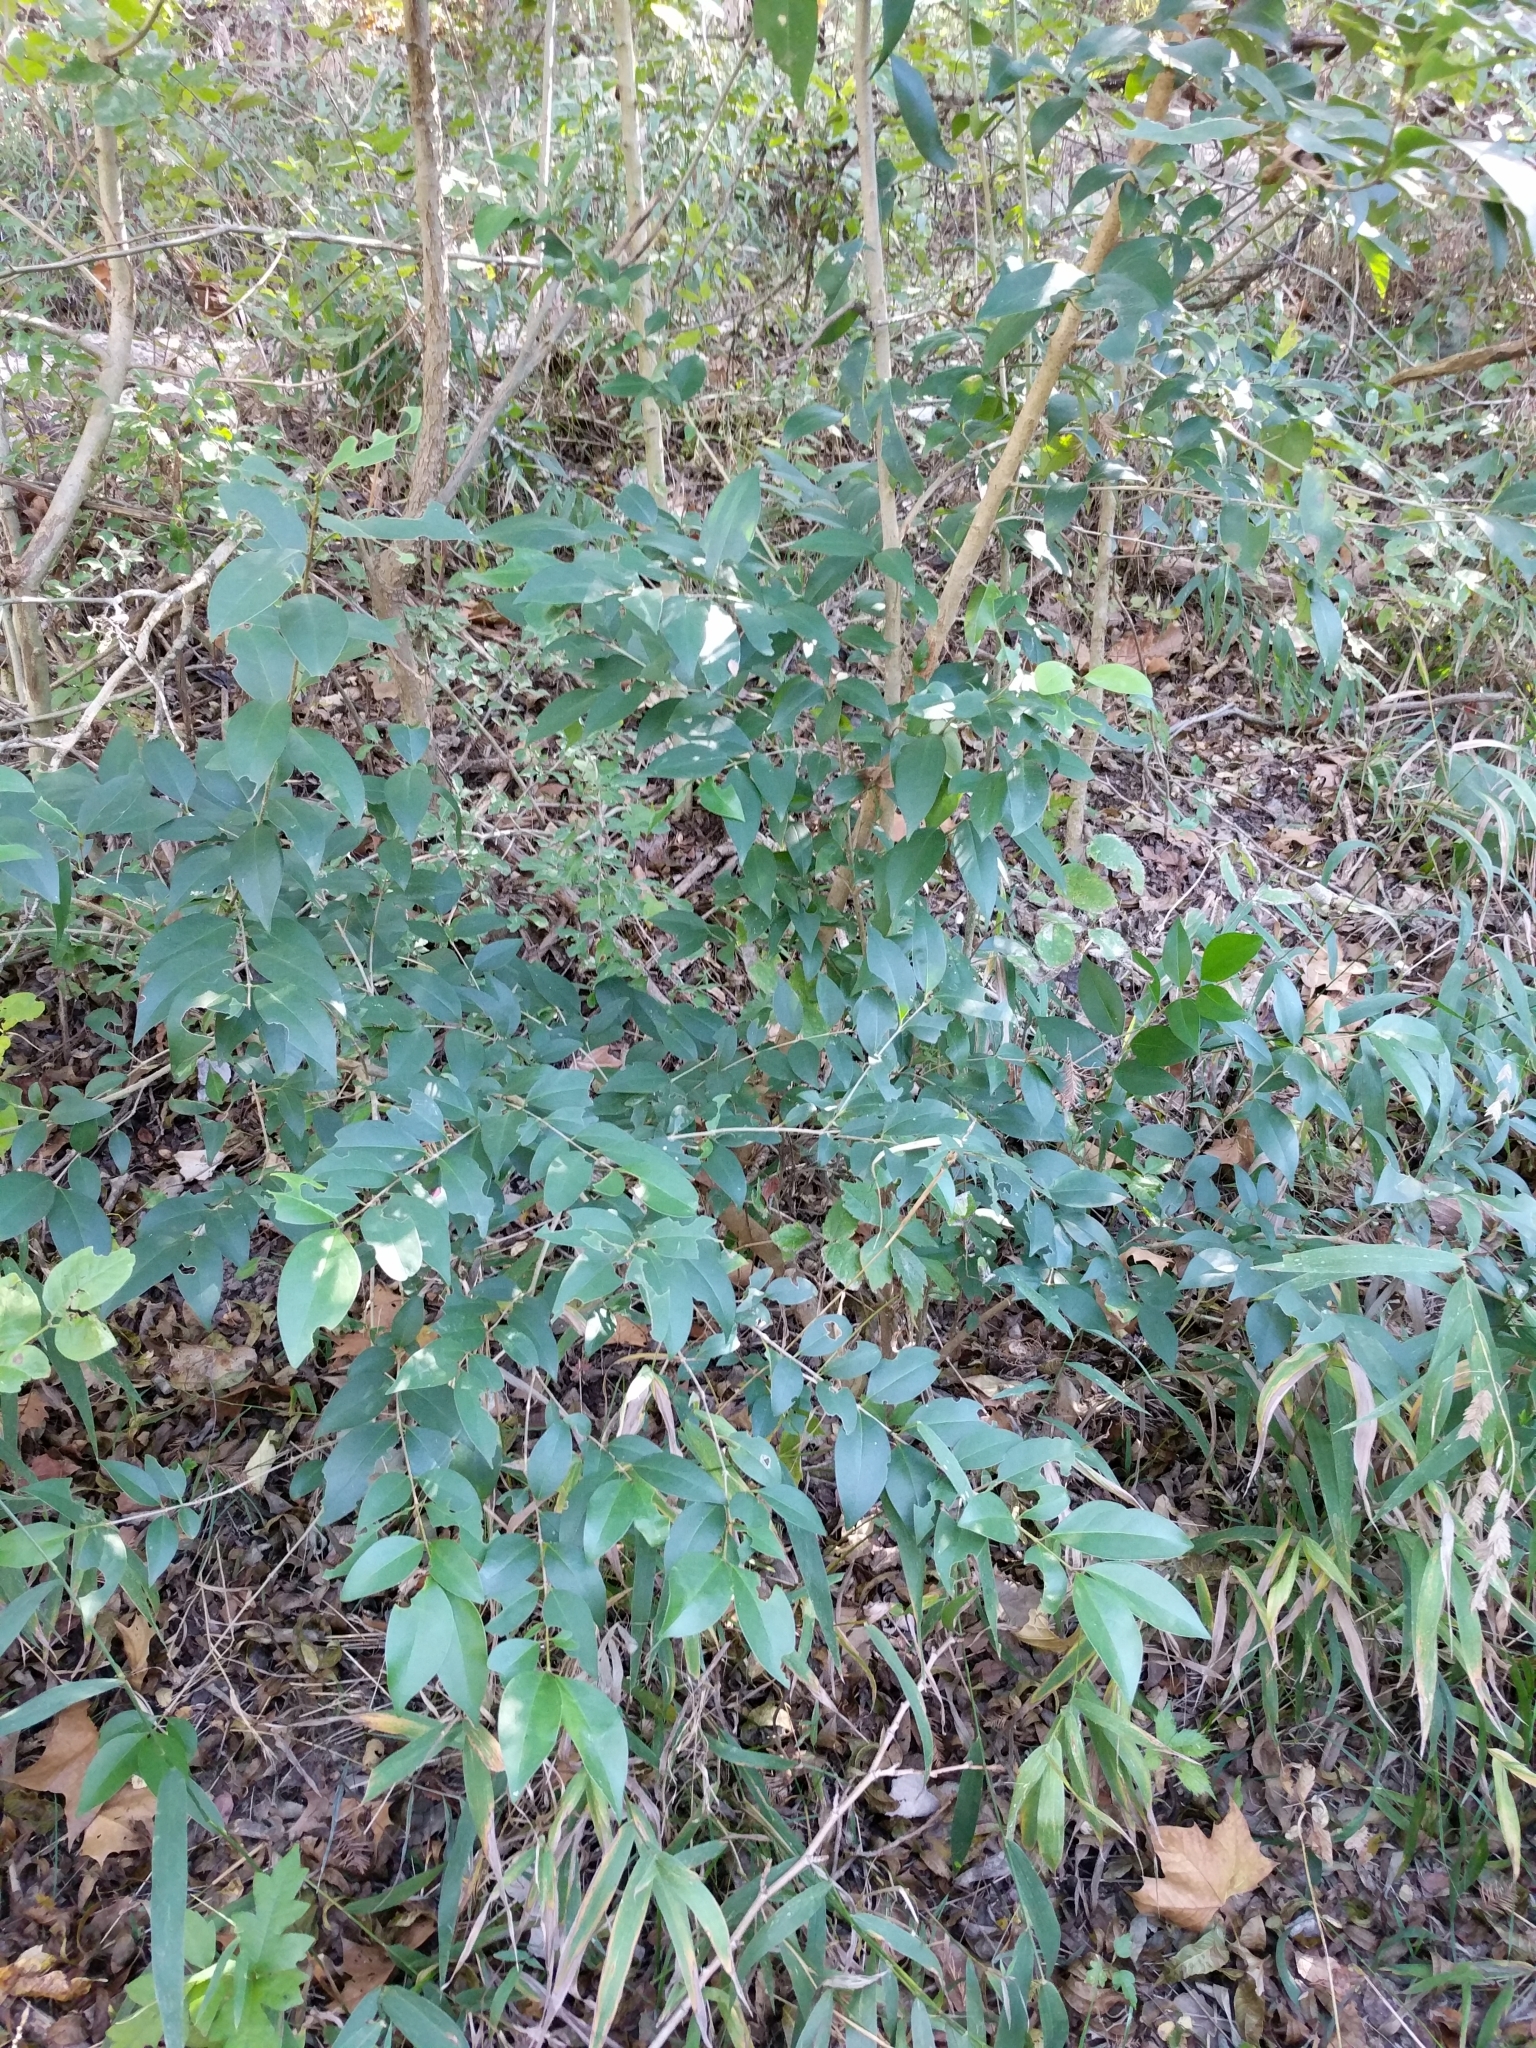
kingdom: Plantae
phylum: Tracheophyta
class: Magnoliopsida
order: Lamiales
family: Oleaceae
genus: Ligustrum
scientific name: Ligustrum lucidum
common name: Glossy privet
